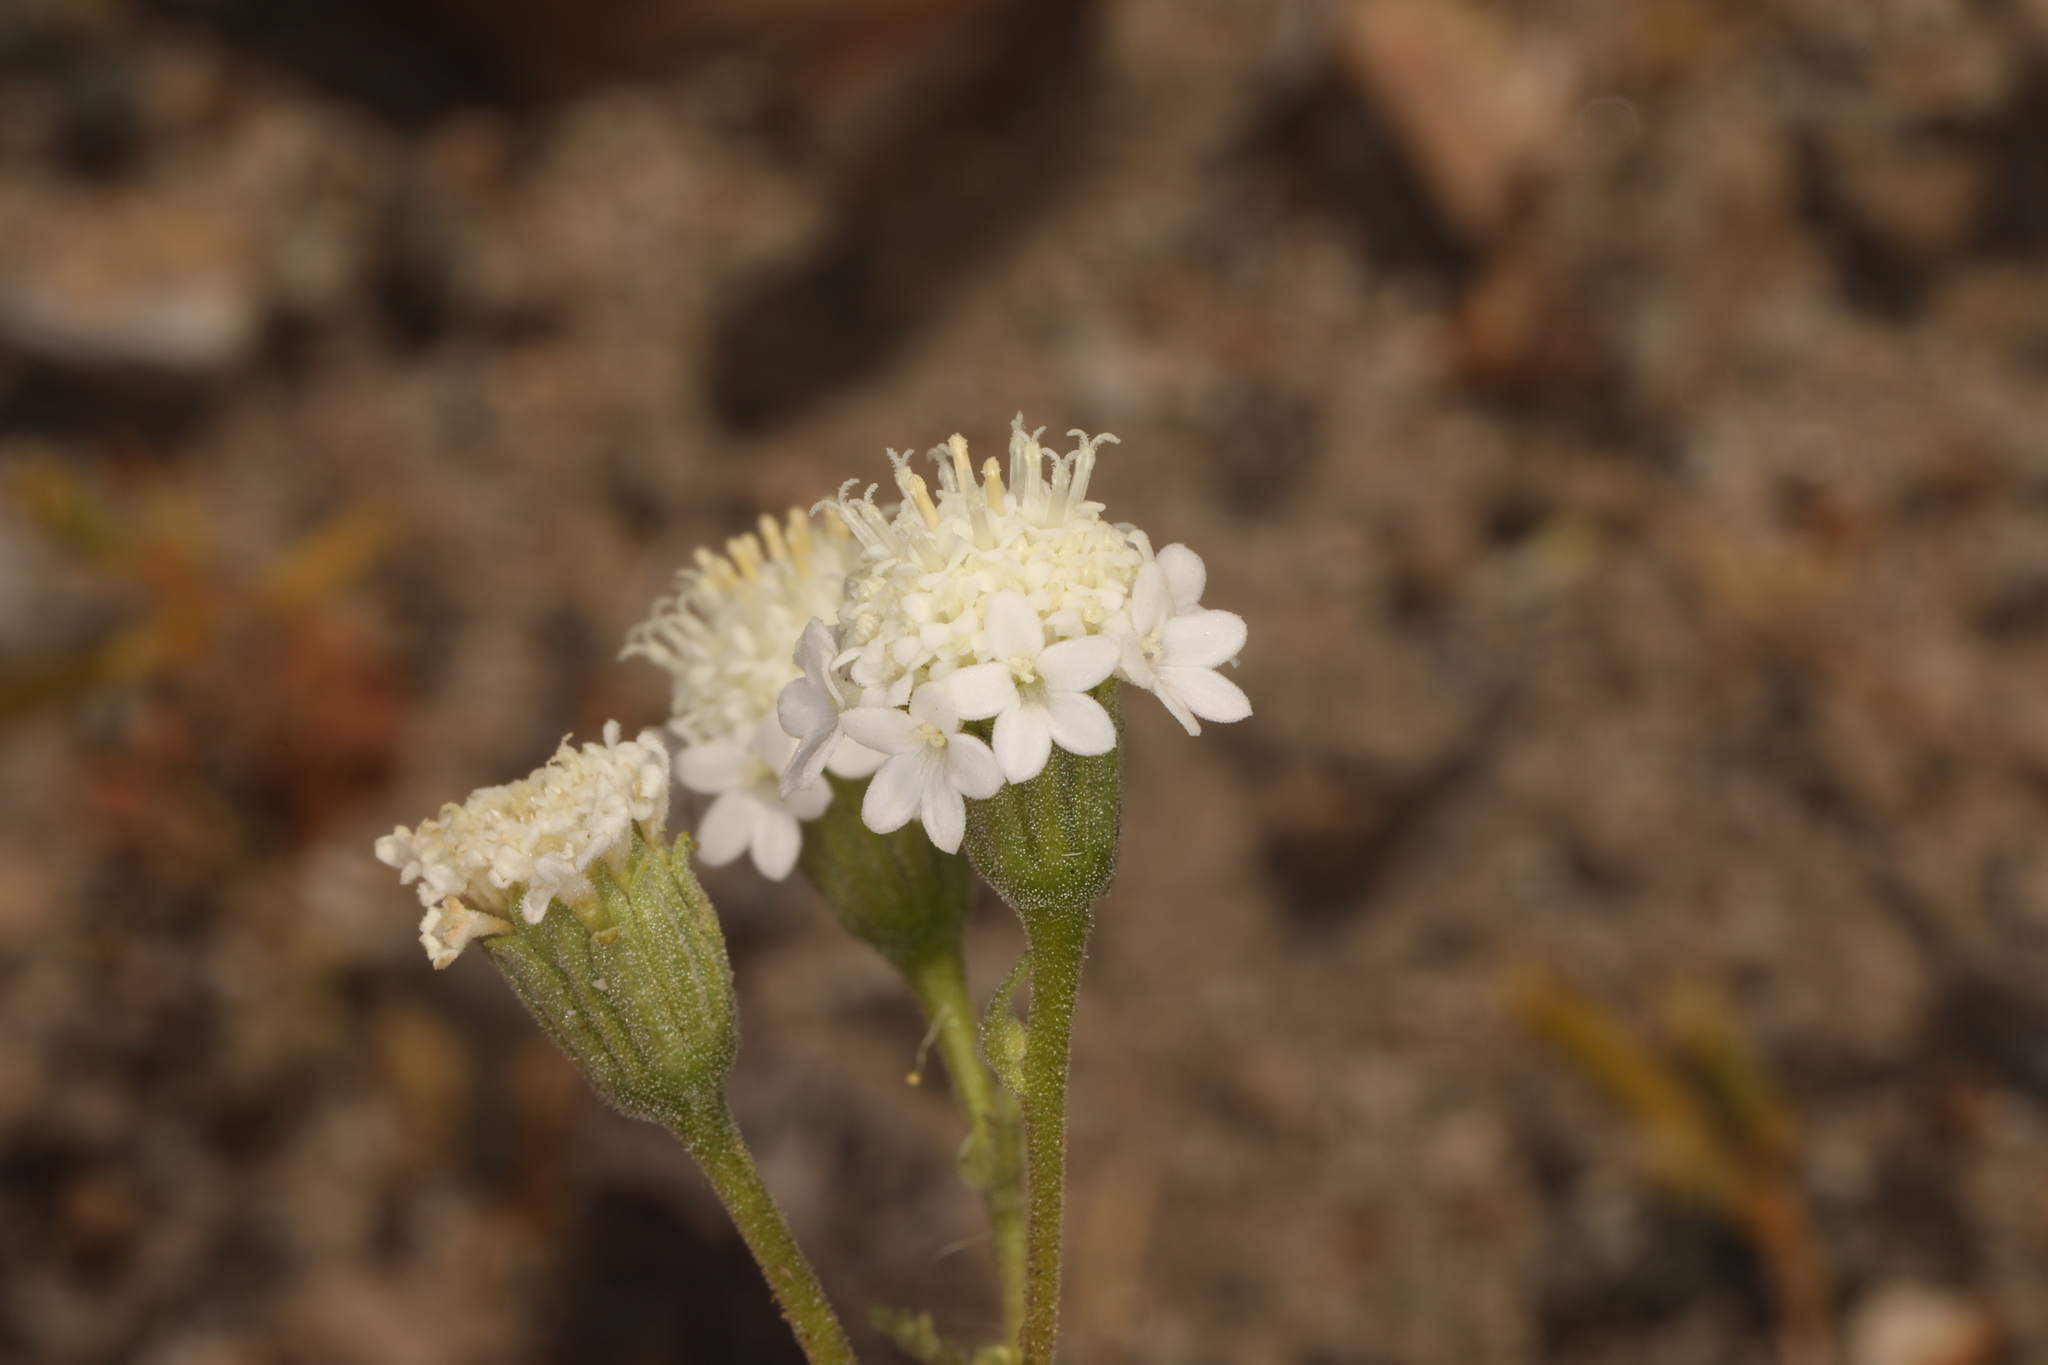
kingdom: Plantae
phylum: Tracheophyta
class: Magnoliopsida
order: Asterales
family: Asteraceae
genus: Chaenactis
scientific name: Chaenactis stevioides
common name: Desert pincushion
